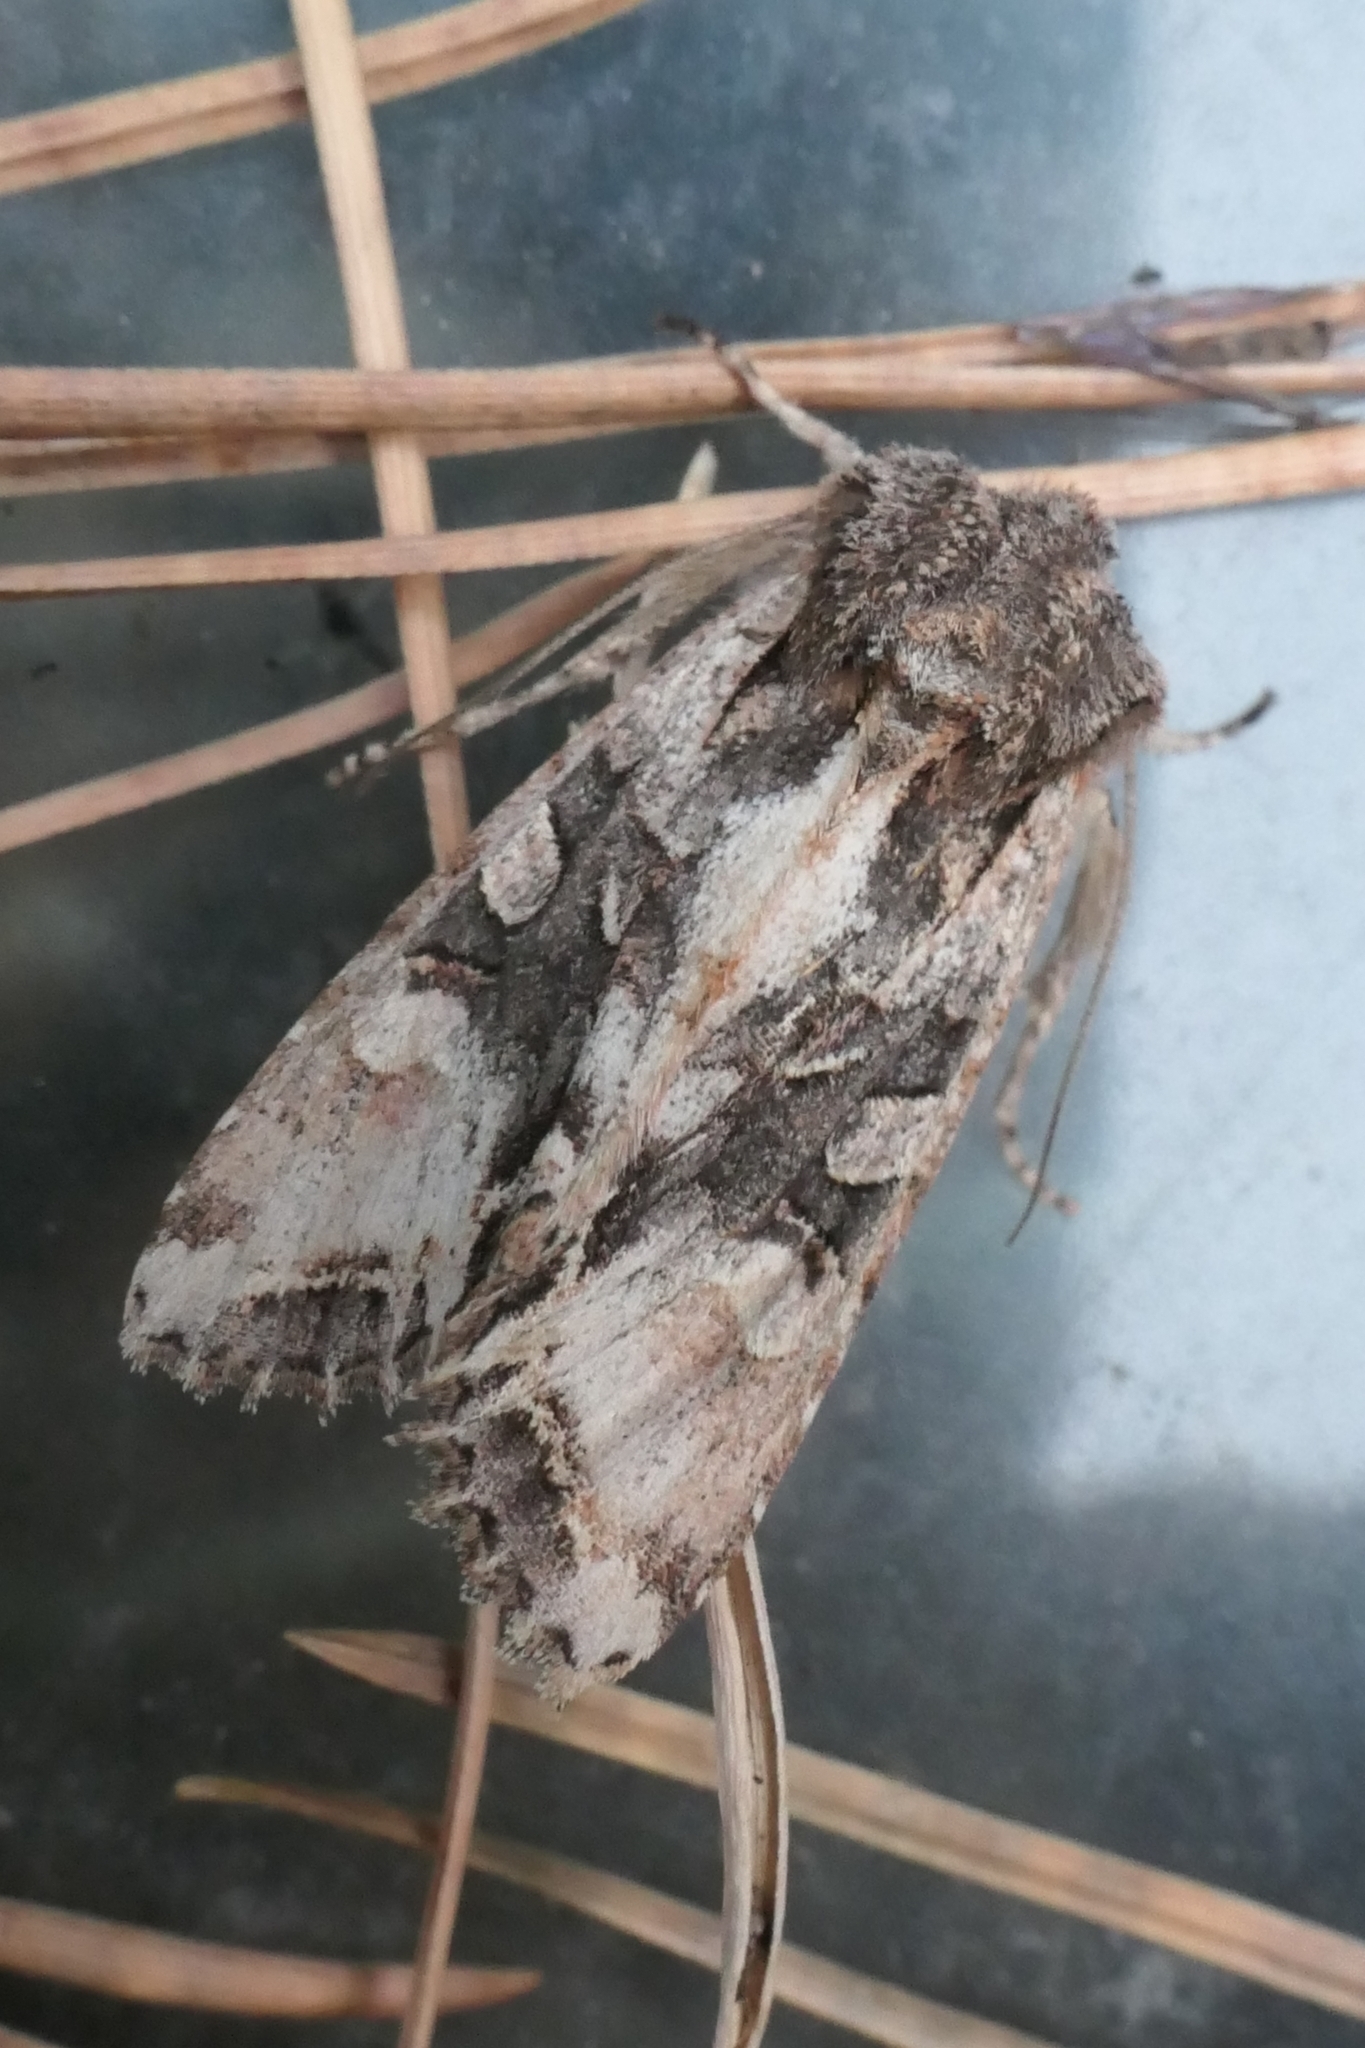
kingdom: Animalia
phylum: Arthropoda
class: Insecta
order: Lepidoptera
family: Noctuidae
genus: Ichneutica
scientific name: Ichneutica
